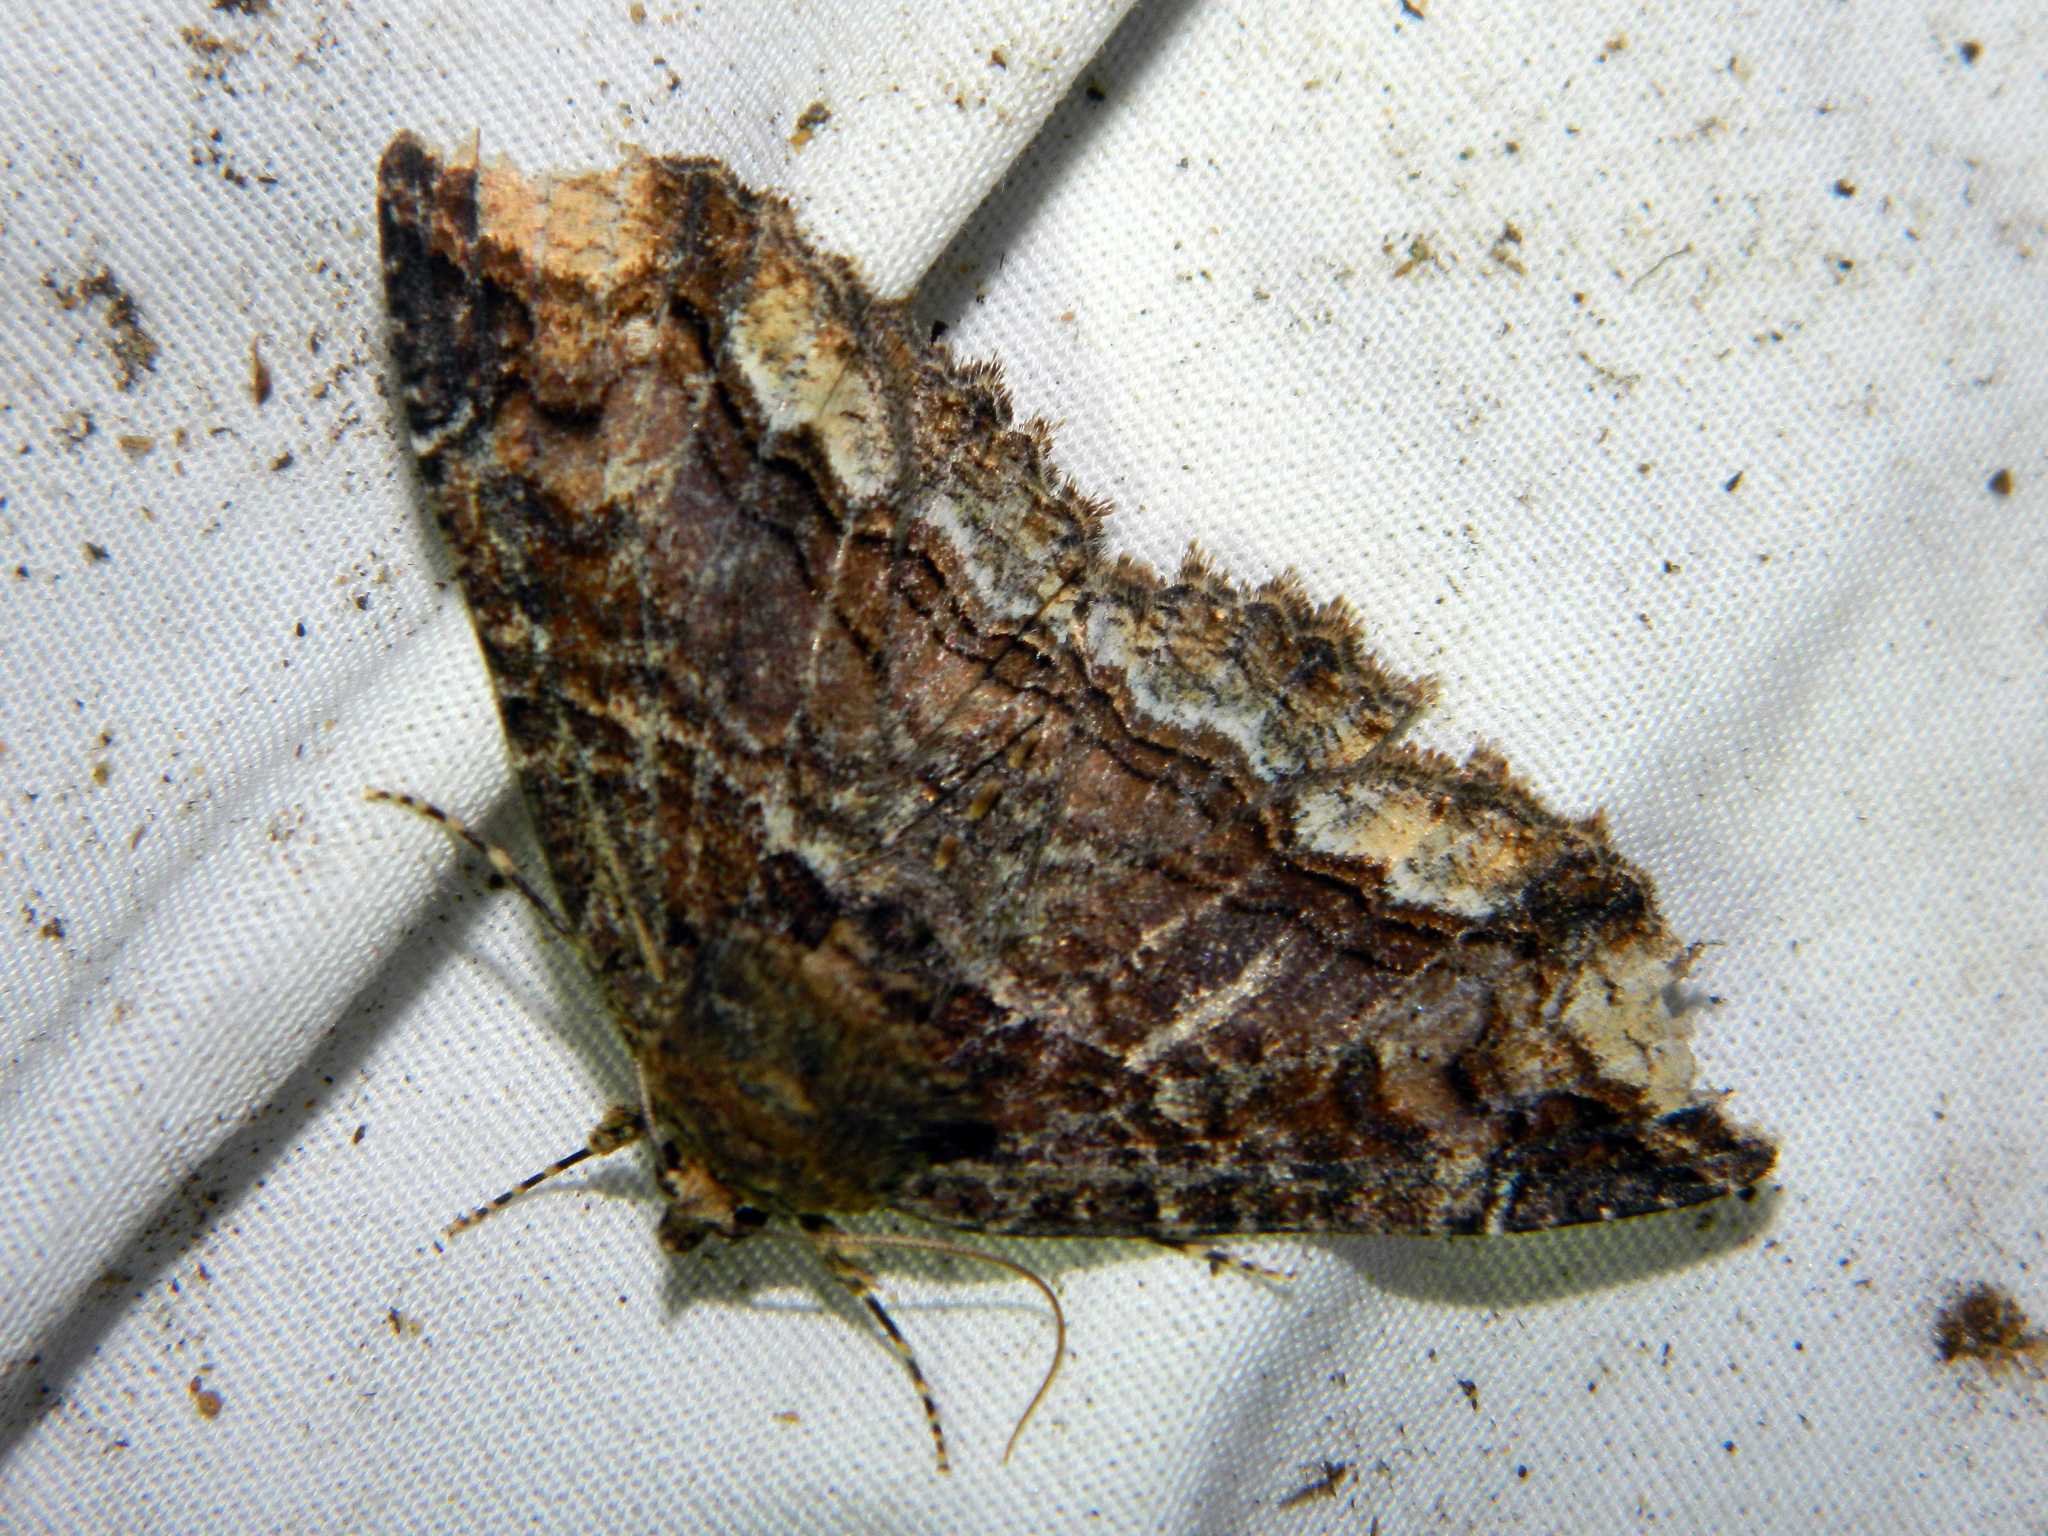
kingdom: Animalia
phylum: Arthropoda
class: Insecta
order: Lepidoptera
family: Erebidae
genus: Zale
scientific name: Zale minerea
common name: Colorful zale moth
